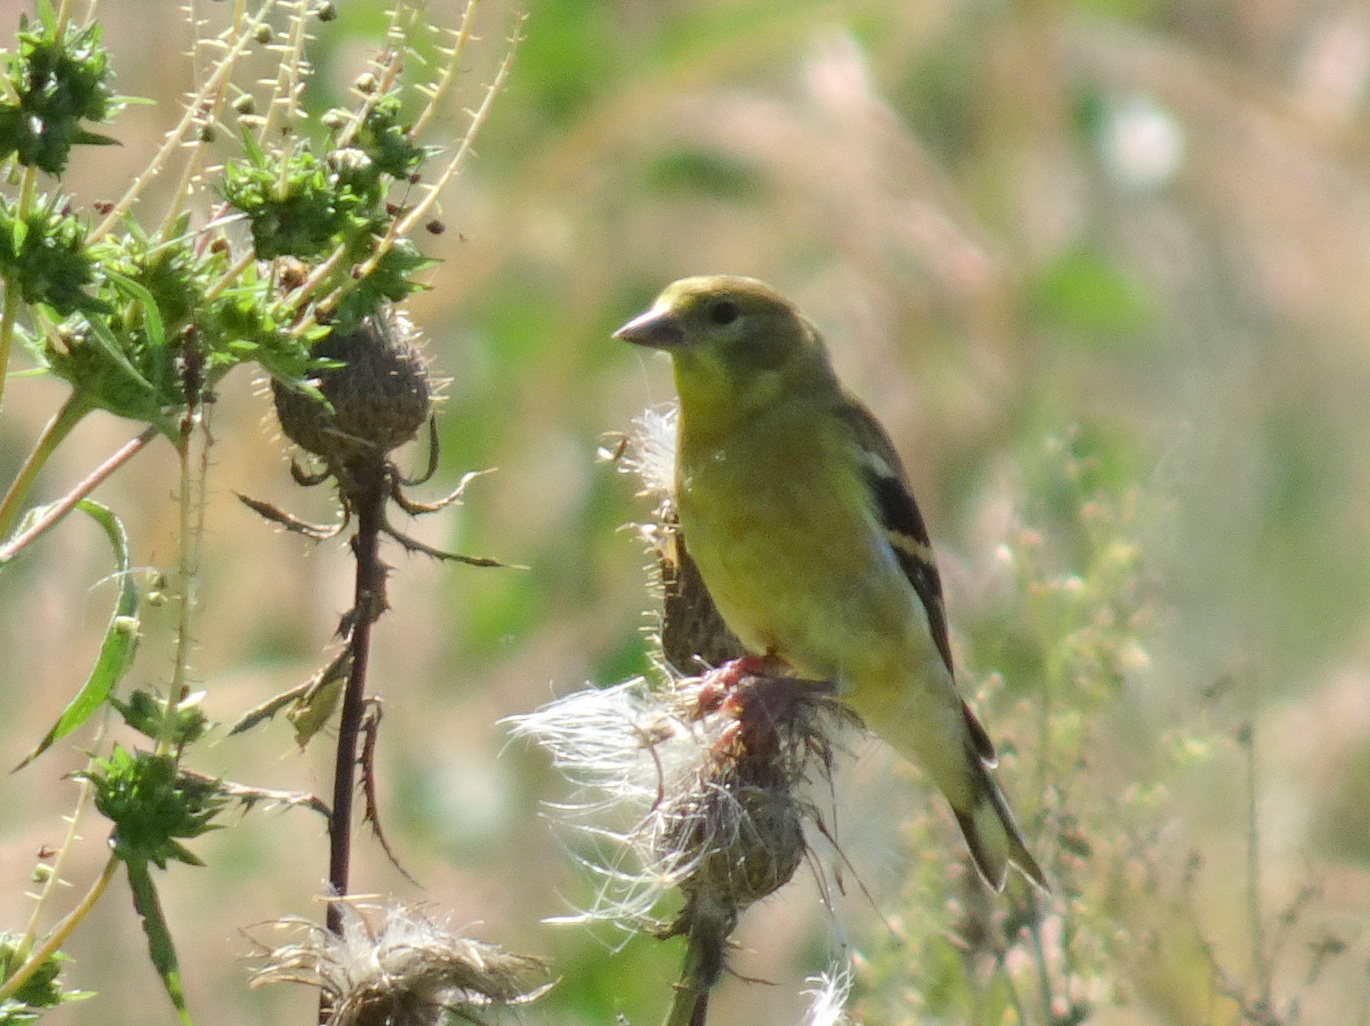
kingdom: Animalia
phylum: Chordata
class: Aves
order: Passeriformes
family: Fringillidae
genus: Spinus
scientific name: Spinus tristis
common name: American goldfinch
